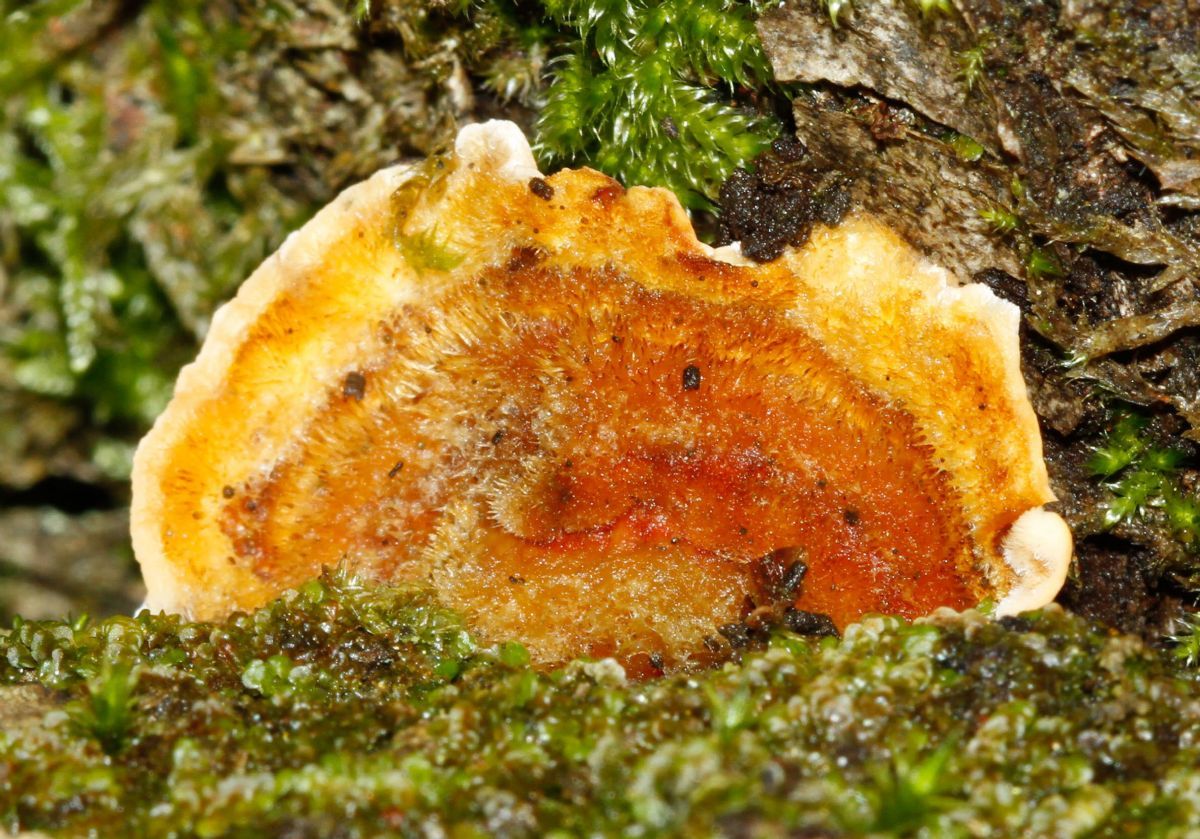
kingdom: Fungi
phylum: Basidiomycota
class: Agaricomycetes
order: Russulales
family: Stereaceae
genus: Stereum
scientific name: Stereum hirsutum
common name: Hairy curtain crust
